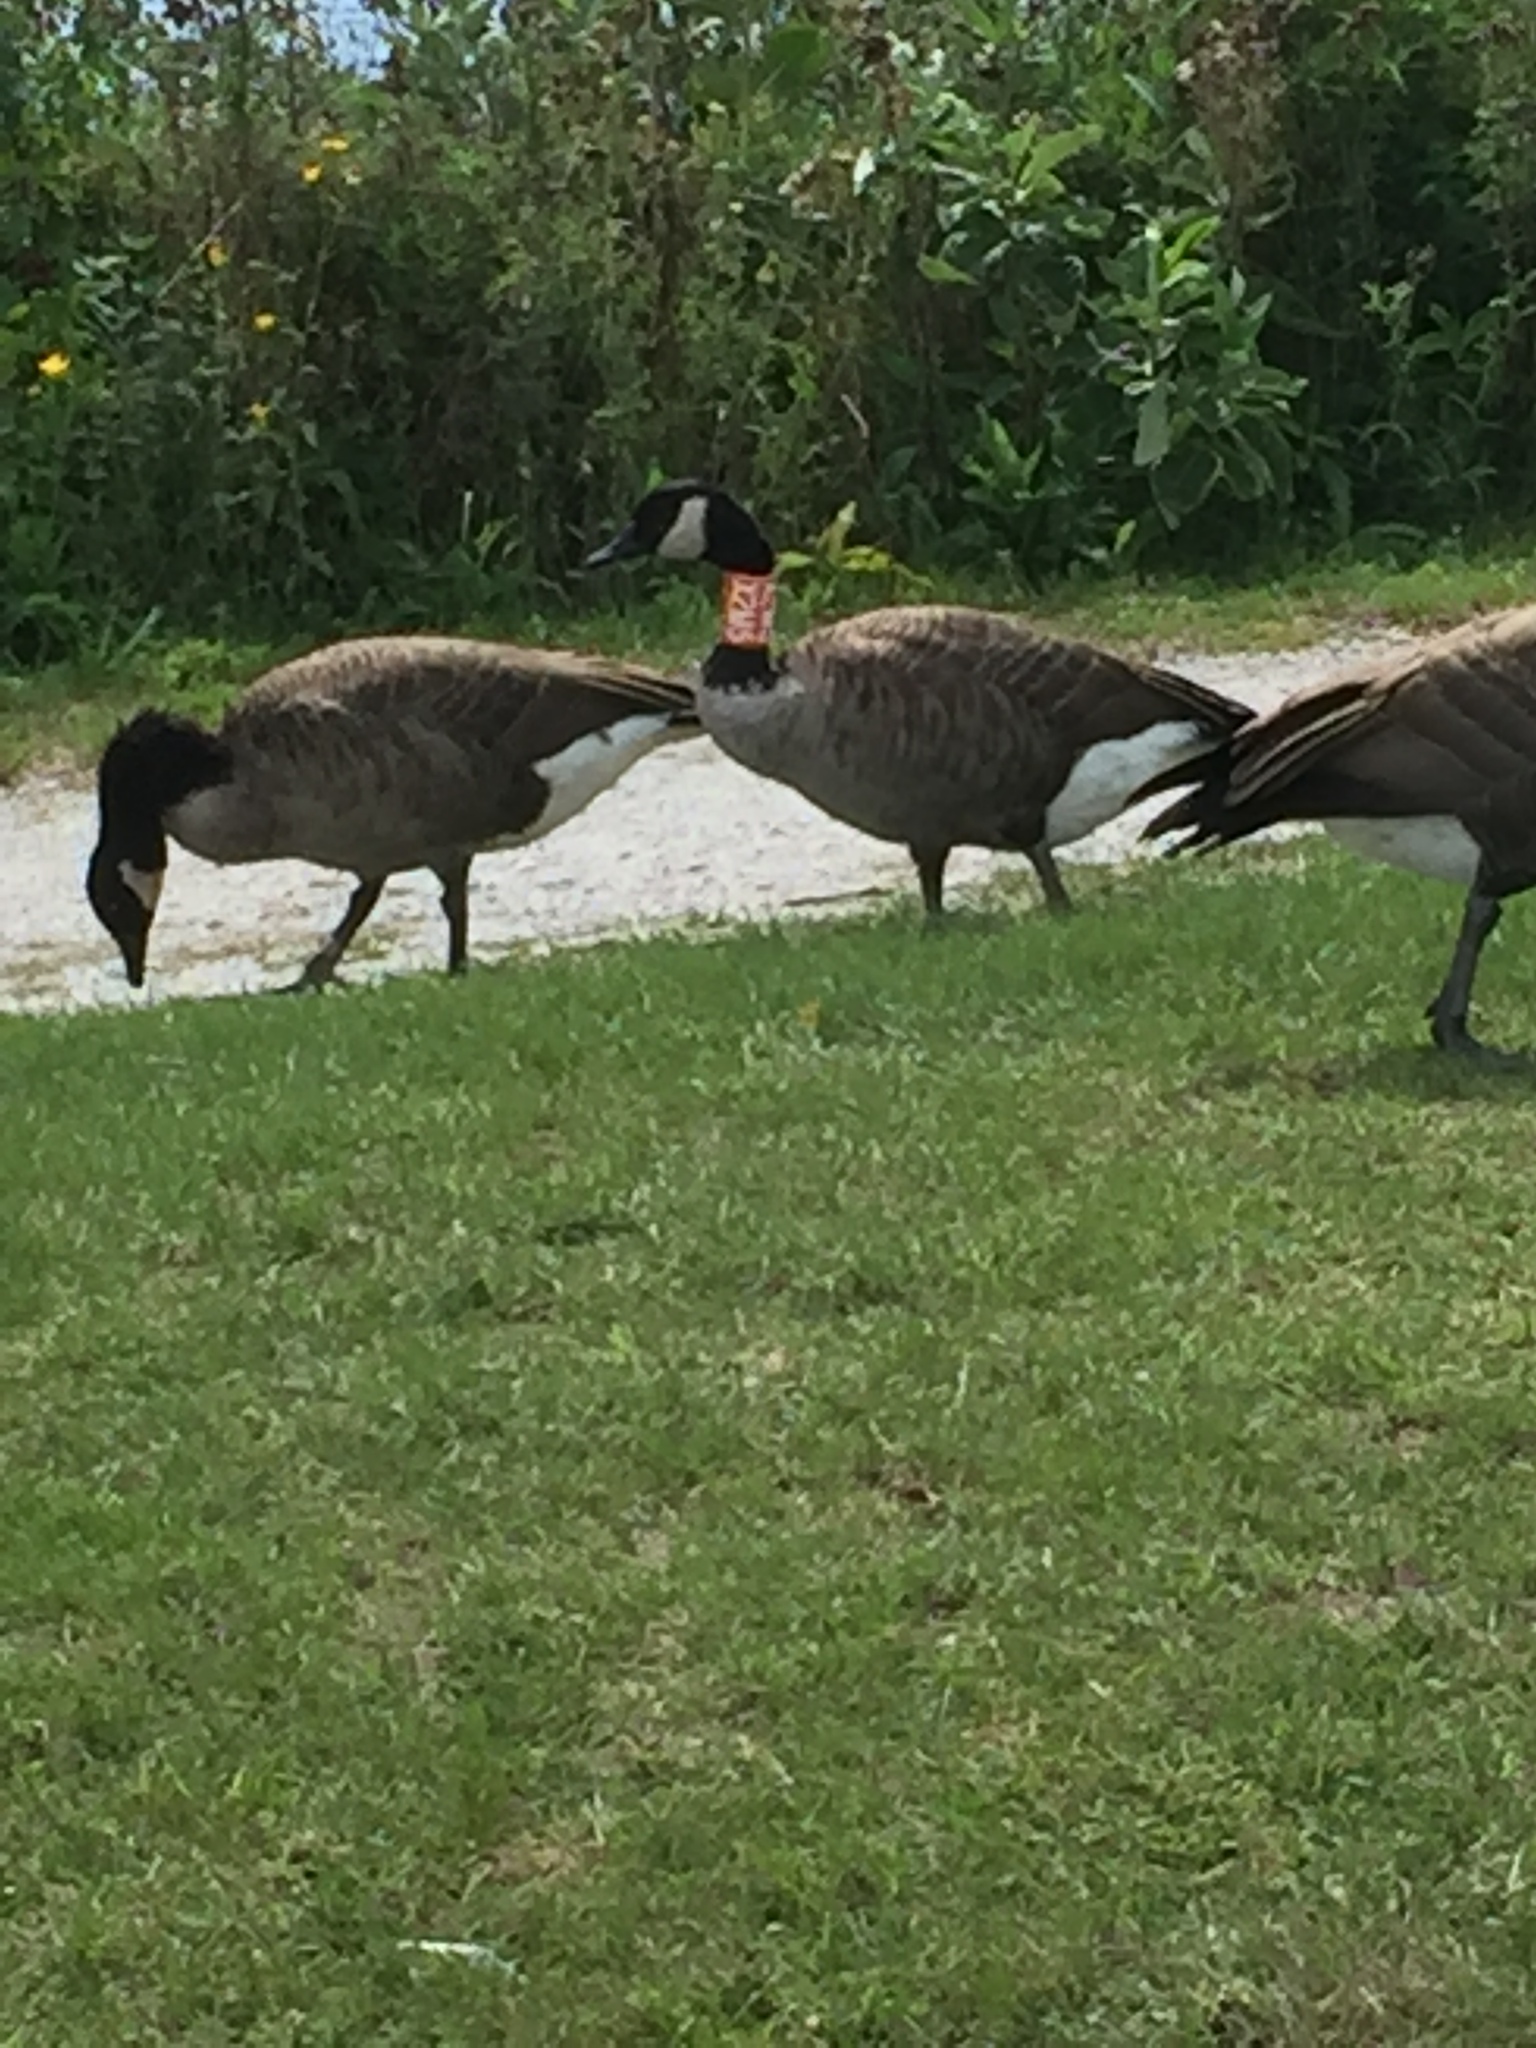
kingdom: Animalia
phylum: Chordata
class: Aves
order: Anseriformes
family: Anatidae
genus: Branta
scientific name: Branta canadensis
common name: Canada goose
